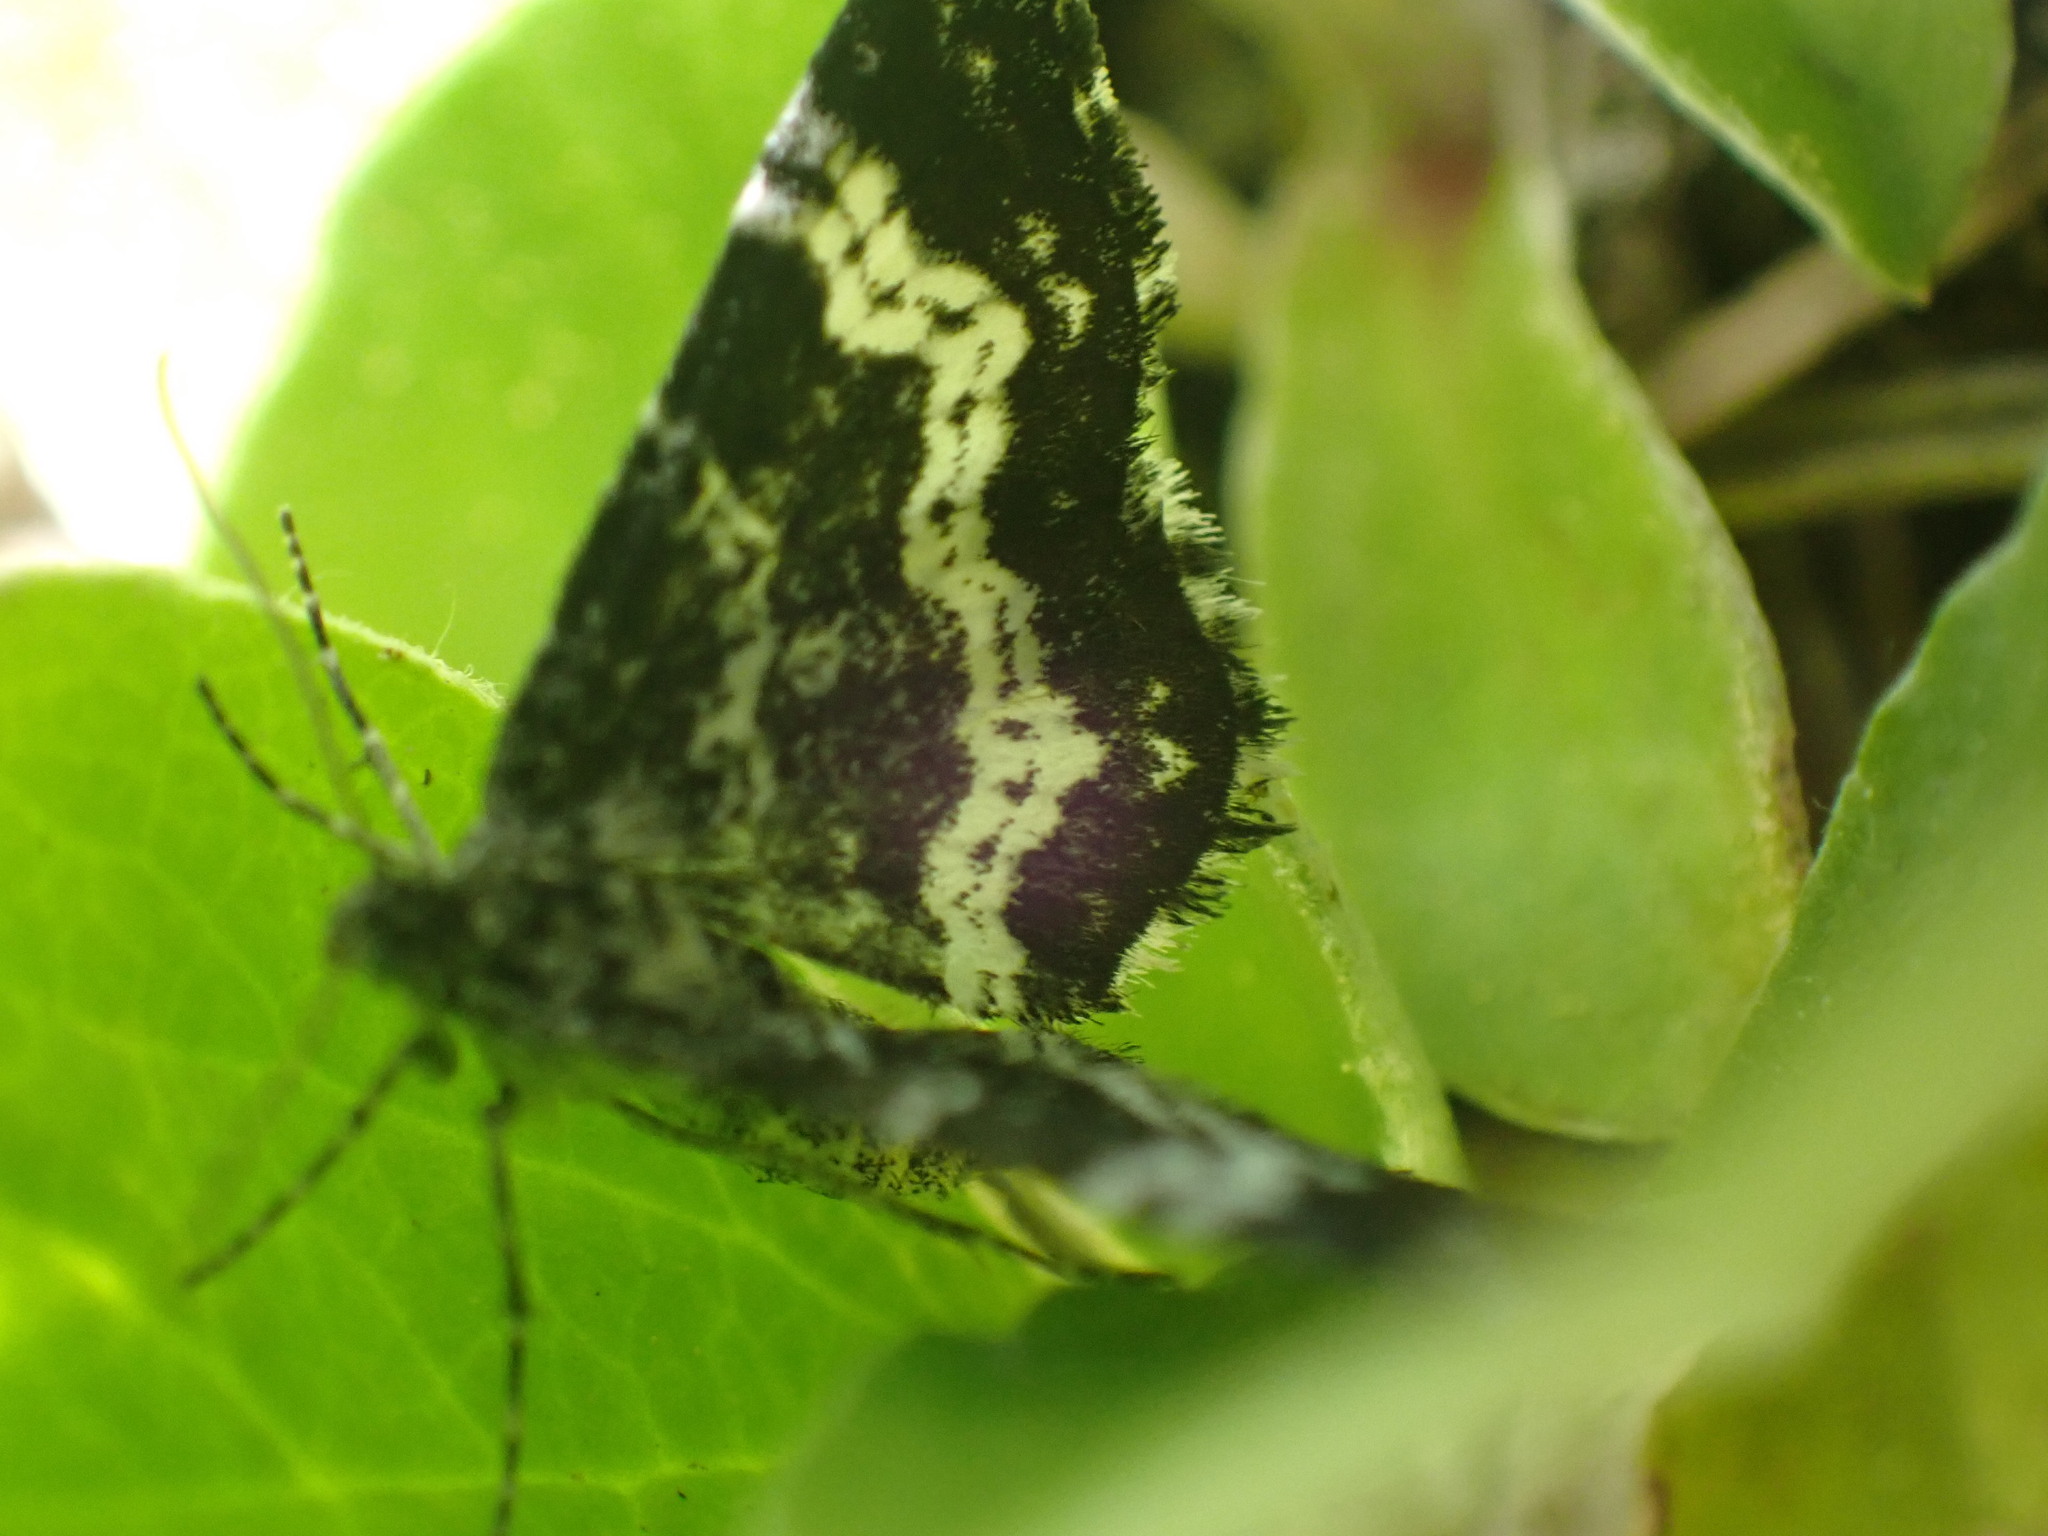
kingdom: Animalia
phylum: Arthropoda
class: Insecta
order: Lepidoptera
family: Geometridae
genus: Epirrhoe
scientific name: Epirrhoe sperryi
